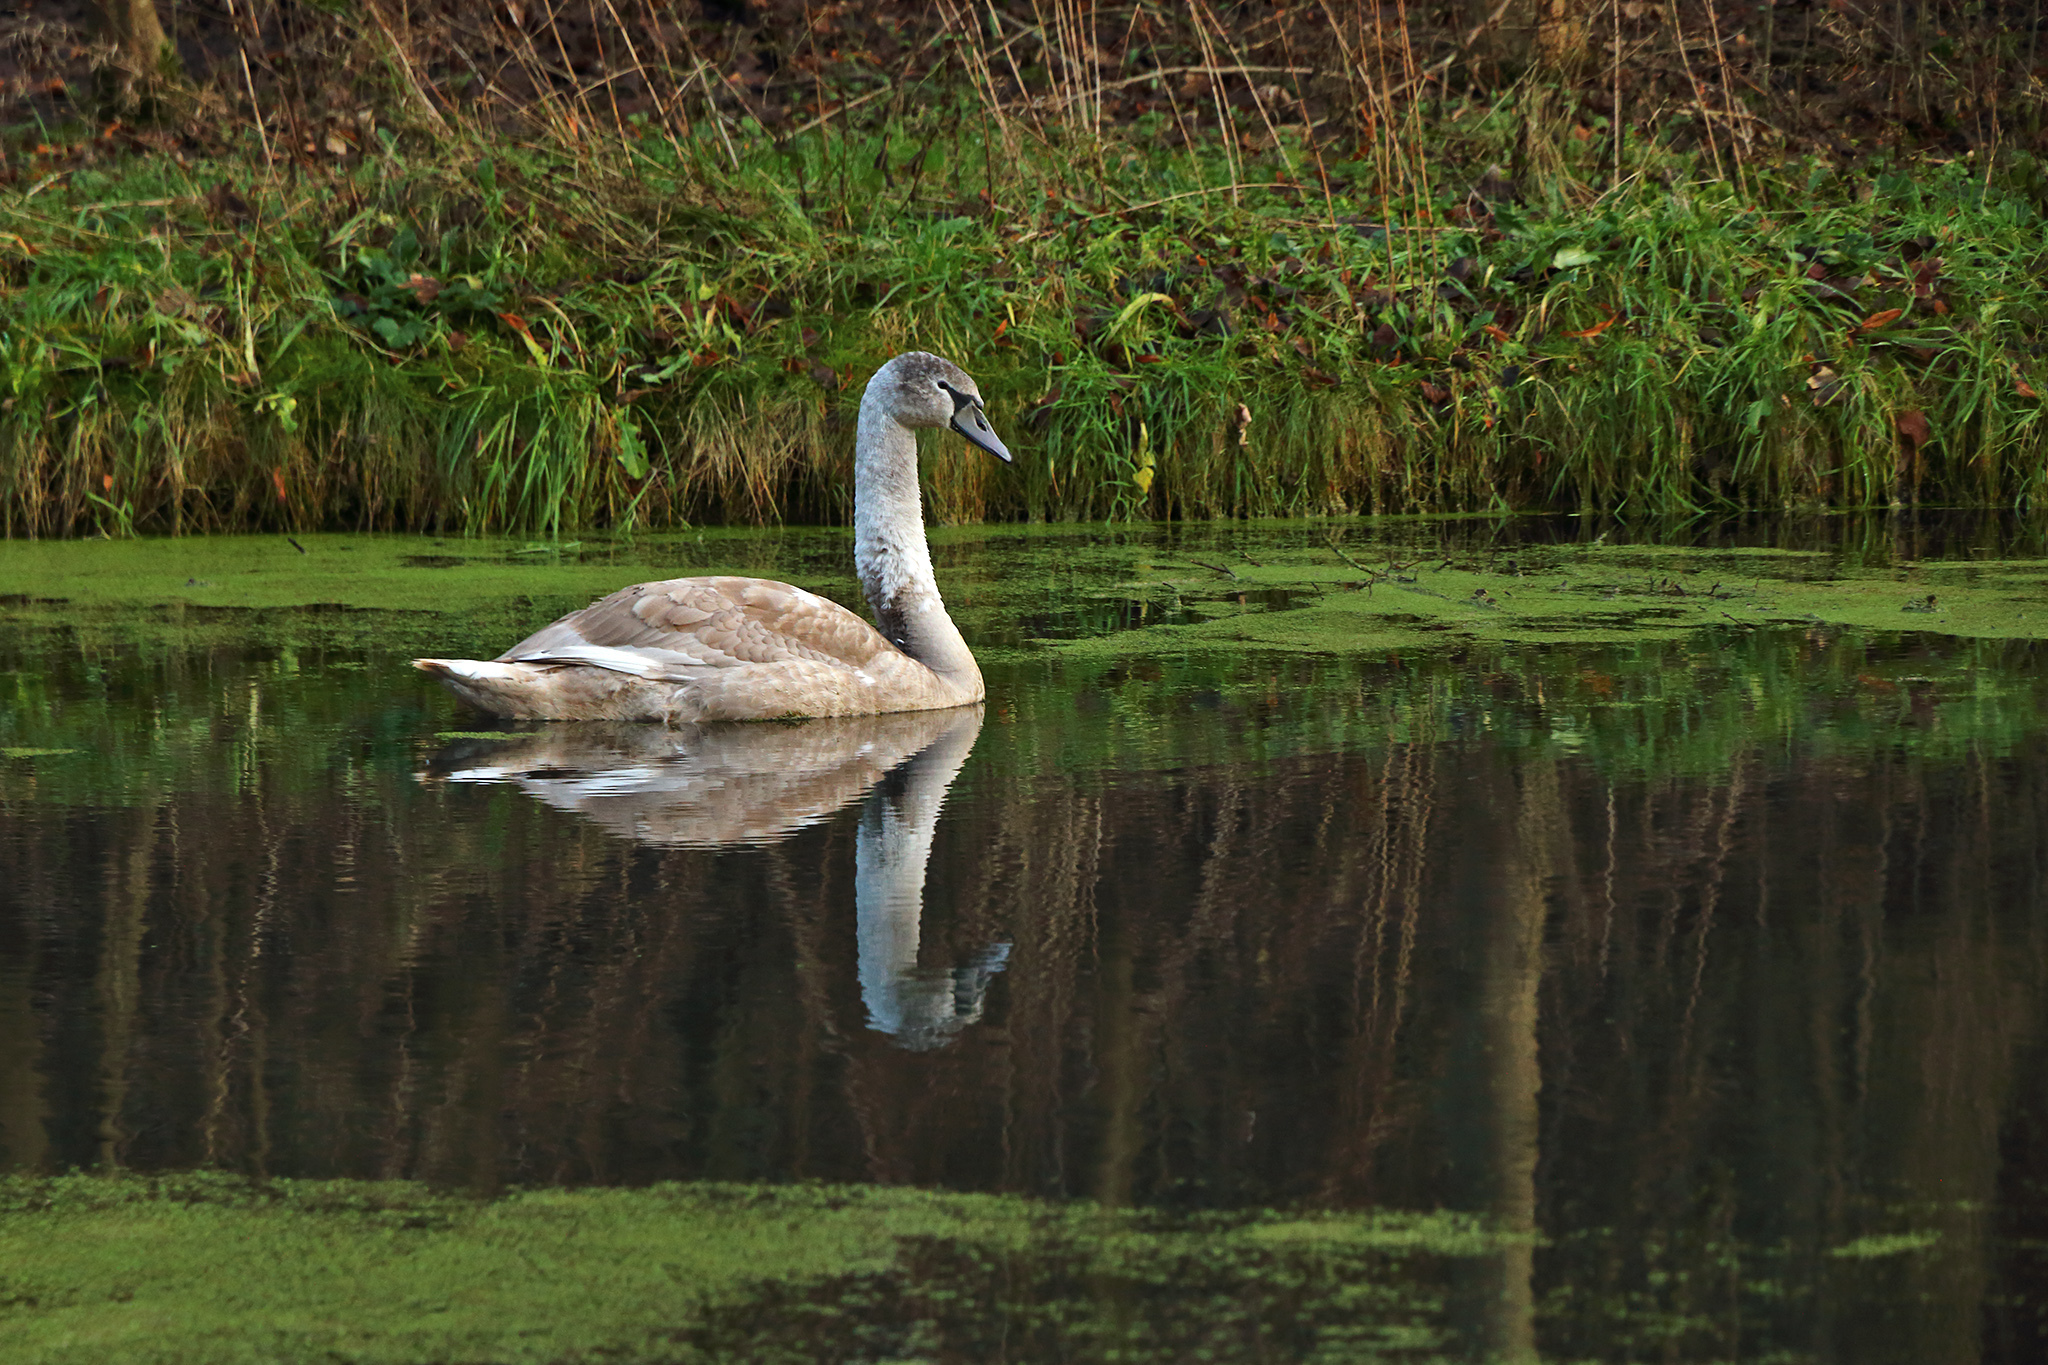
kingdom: Animalia
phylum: Chordata
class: Aves
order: Anseriformes
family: Anatidae
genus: Cygnus
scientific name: Cygnus olor
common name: Mute swan
